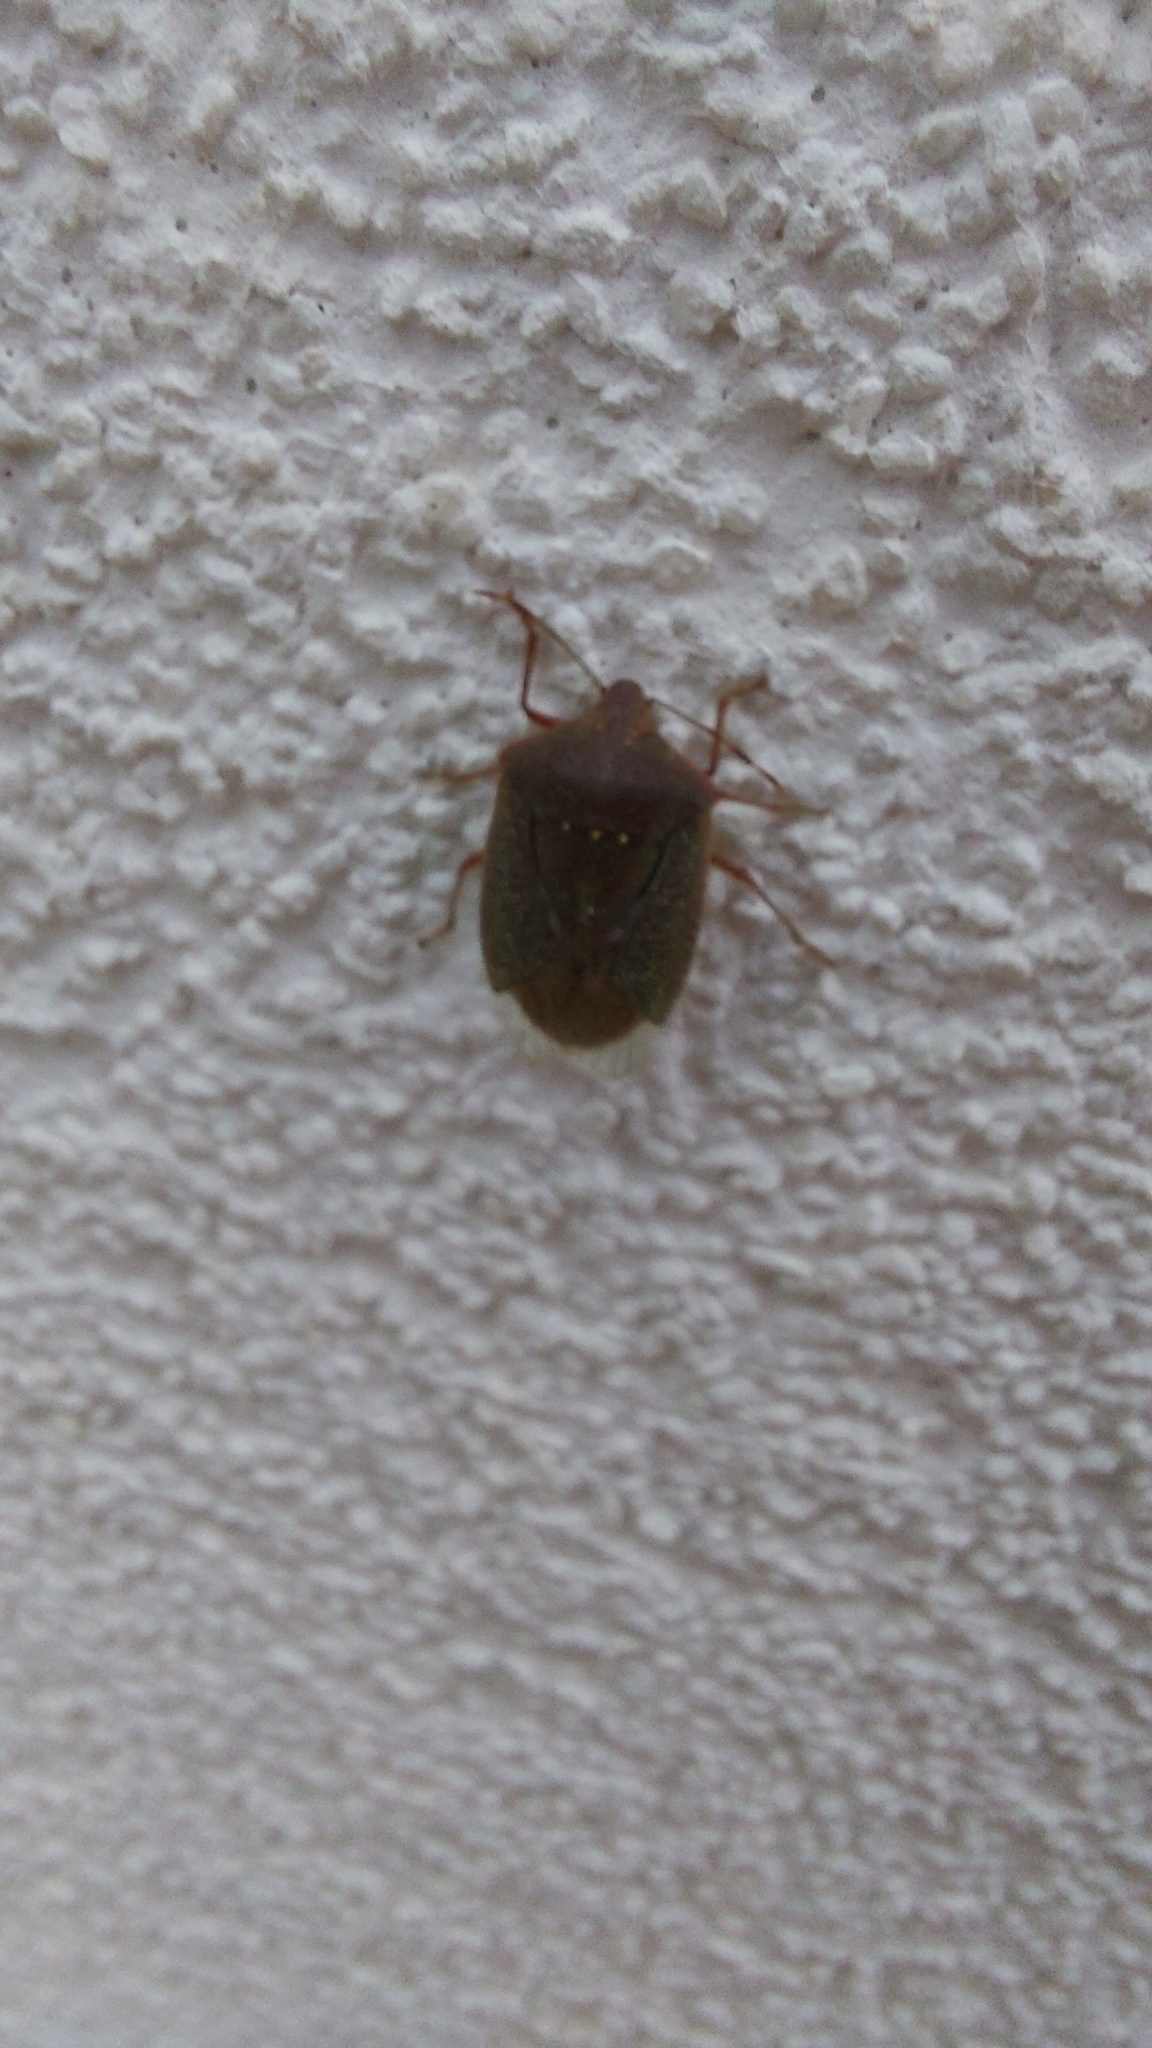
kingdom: Animalia
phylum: Arthropoda
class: Insecta
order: Hemiptera
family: Pentatomidae
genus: Nezara
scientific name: Nezara viridula
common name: Southern green stink bug
